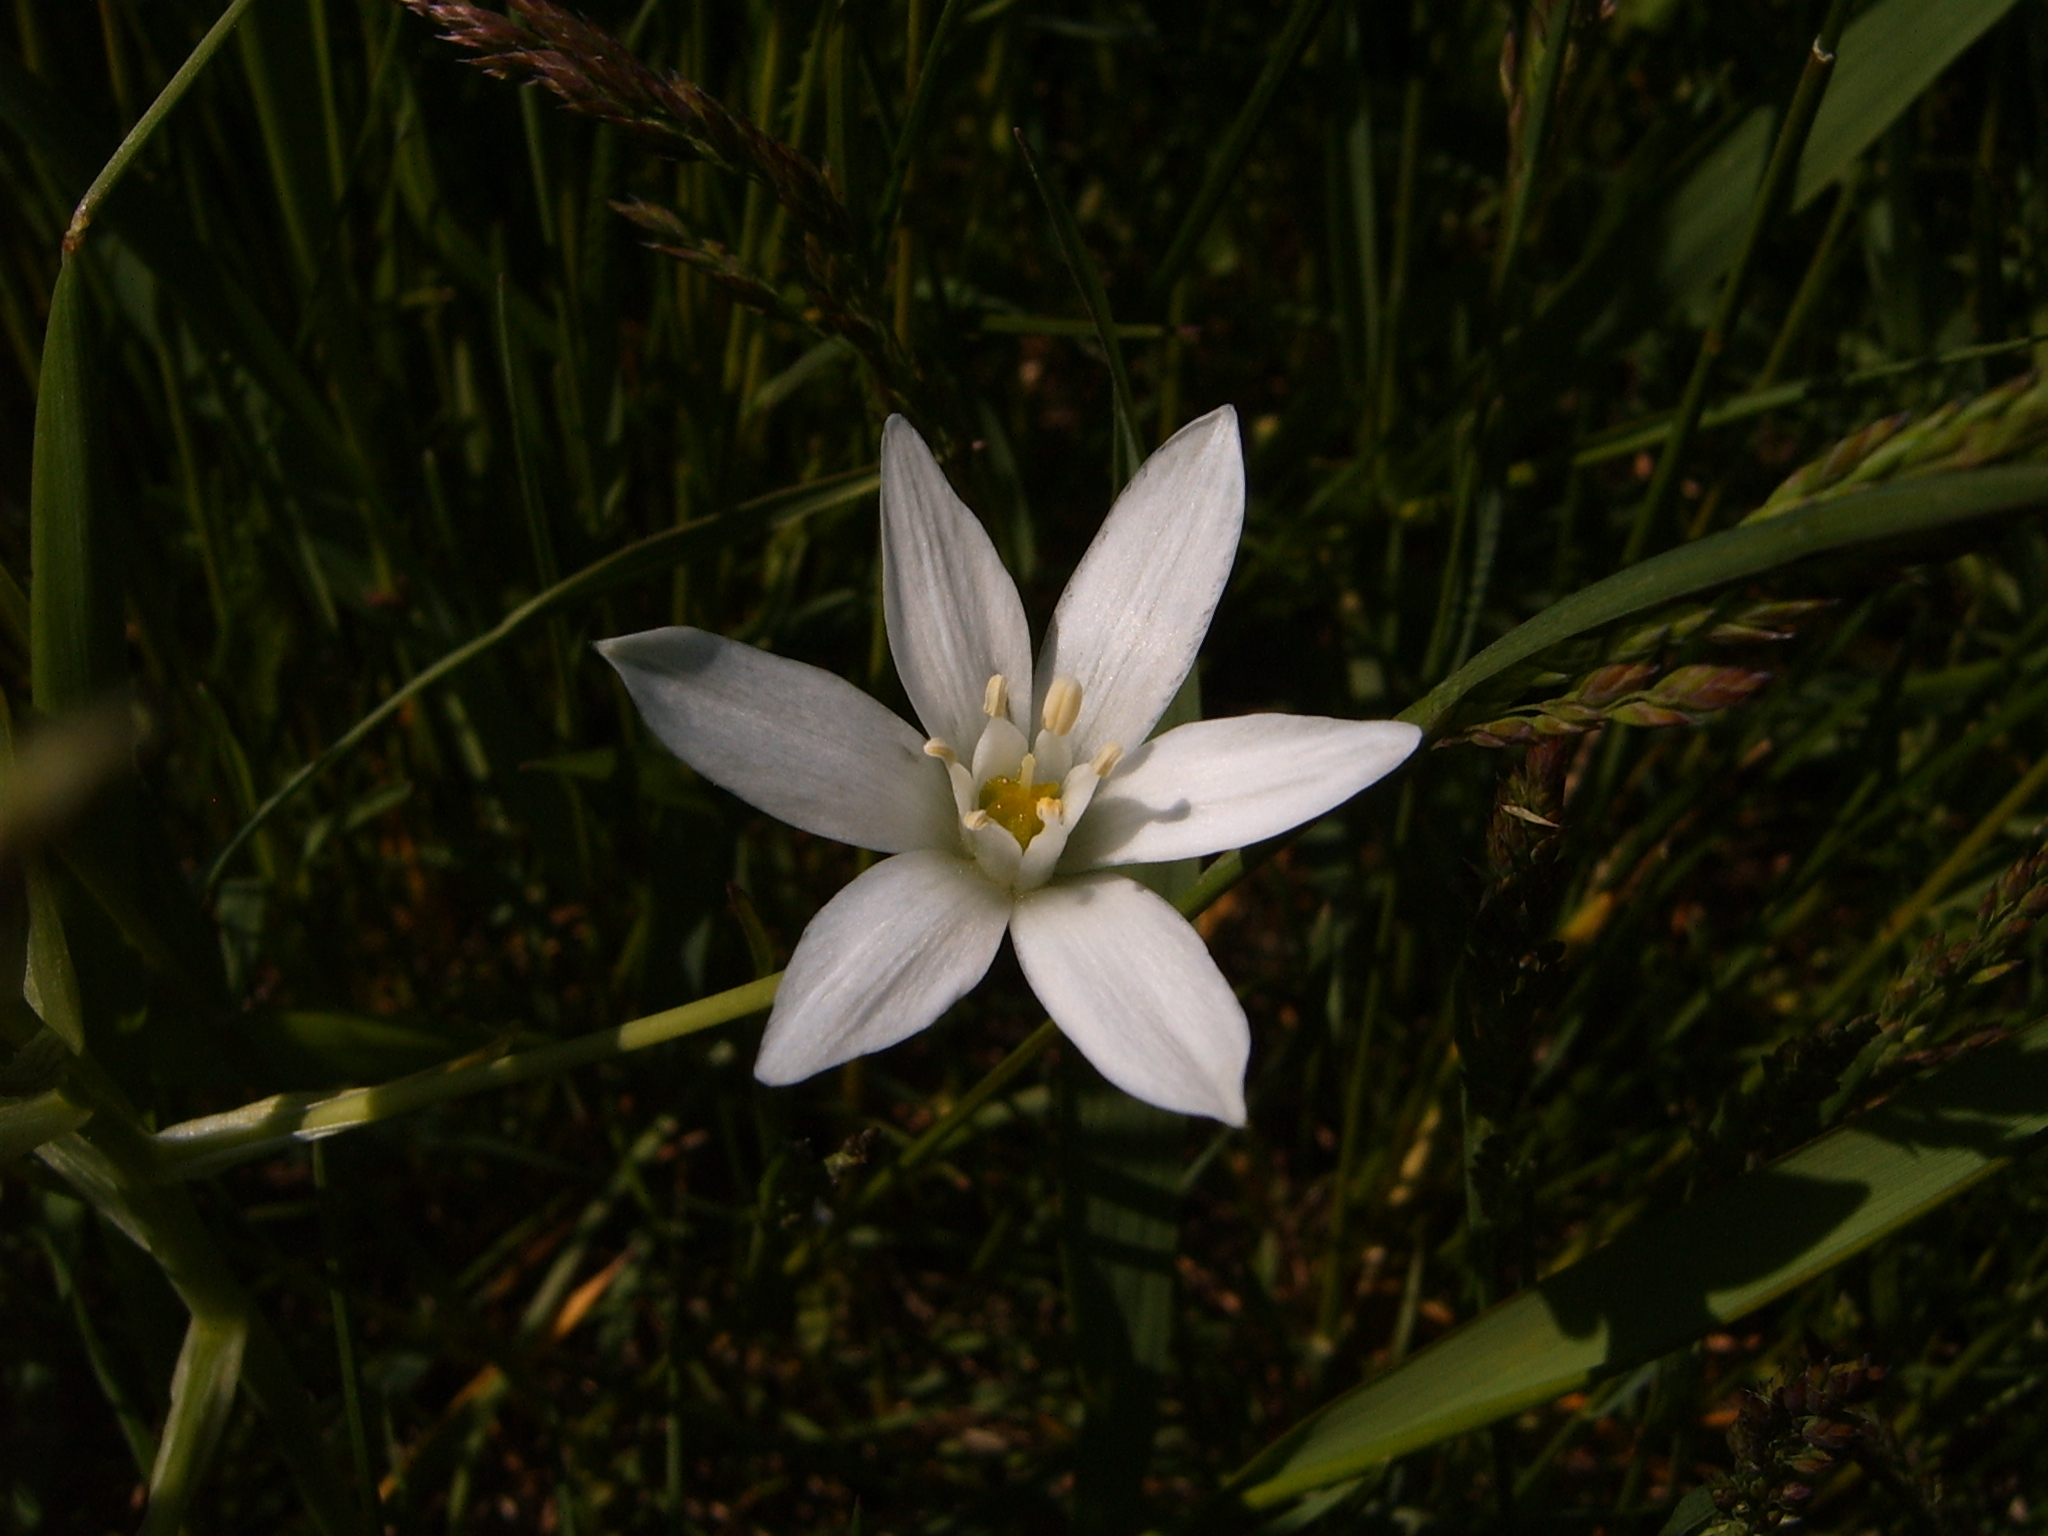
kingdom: Plantae
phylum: Tracheophyta
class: Liliopsida
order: Asparagales
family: Asparagaceae
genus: Ornithogalum
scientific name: Ornithogalum umbellatum
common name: Garden star-of-bethlehem
